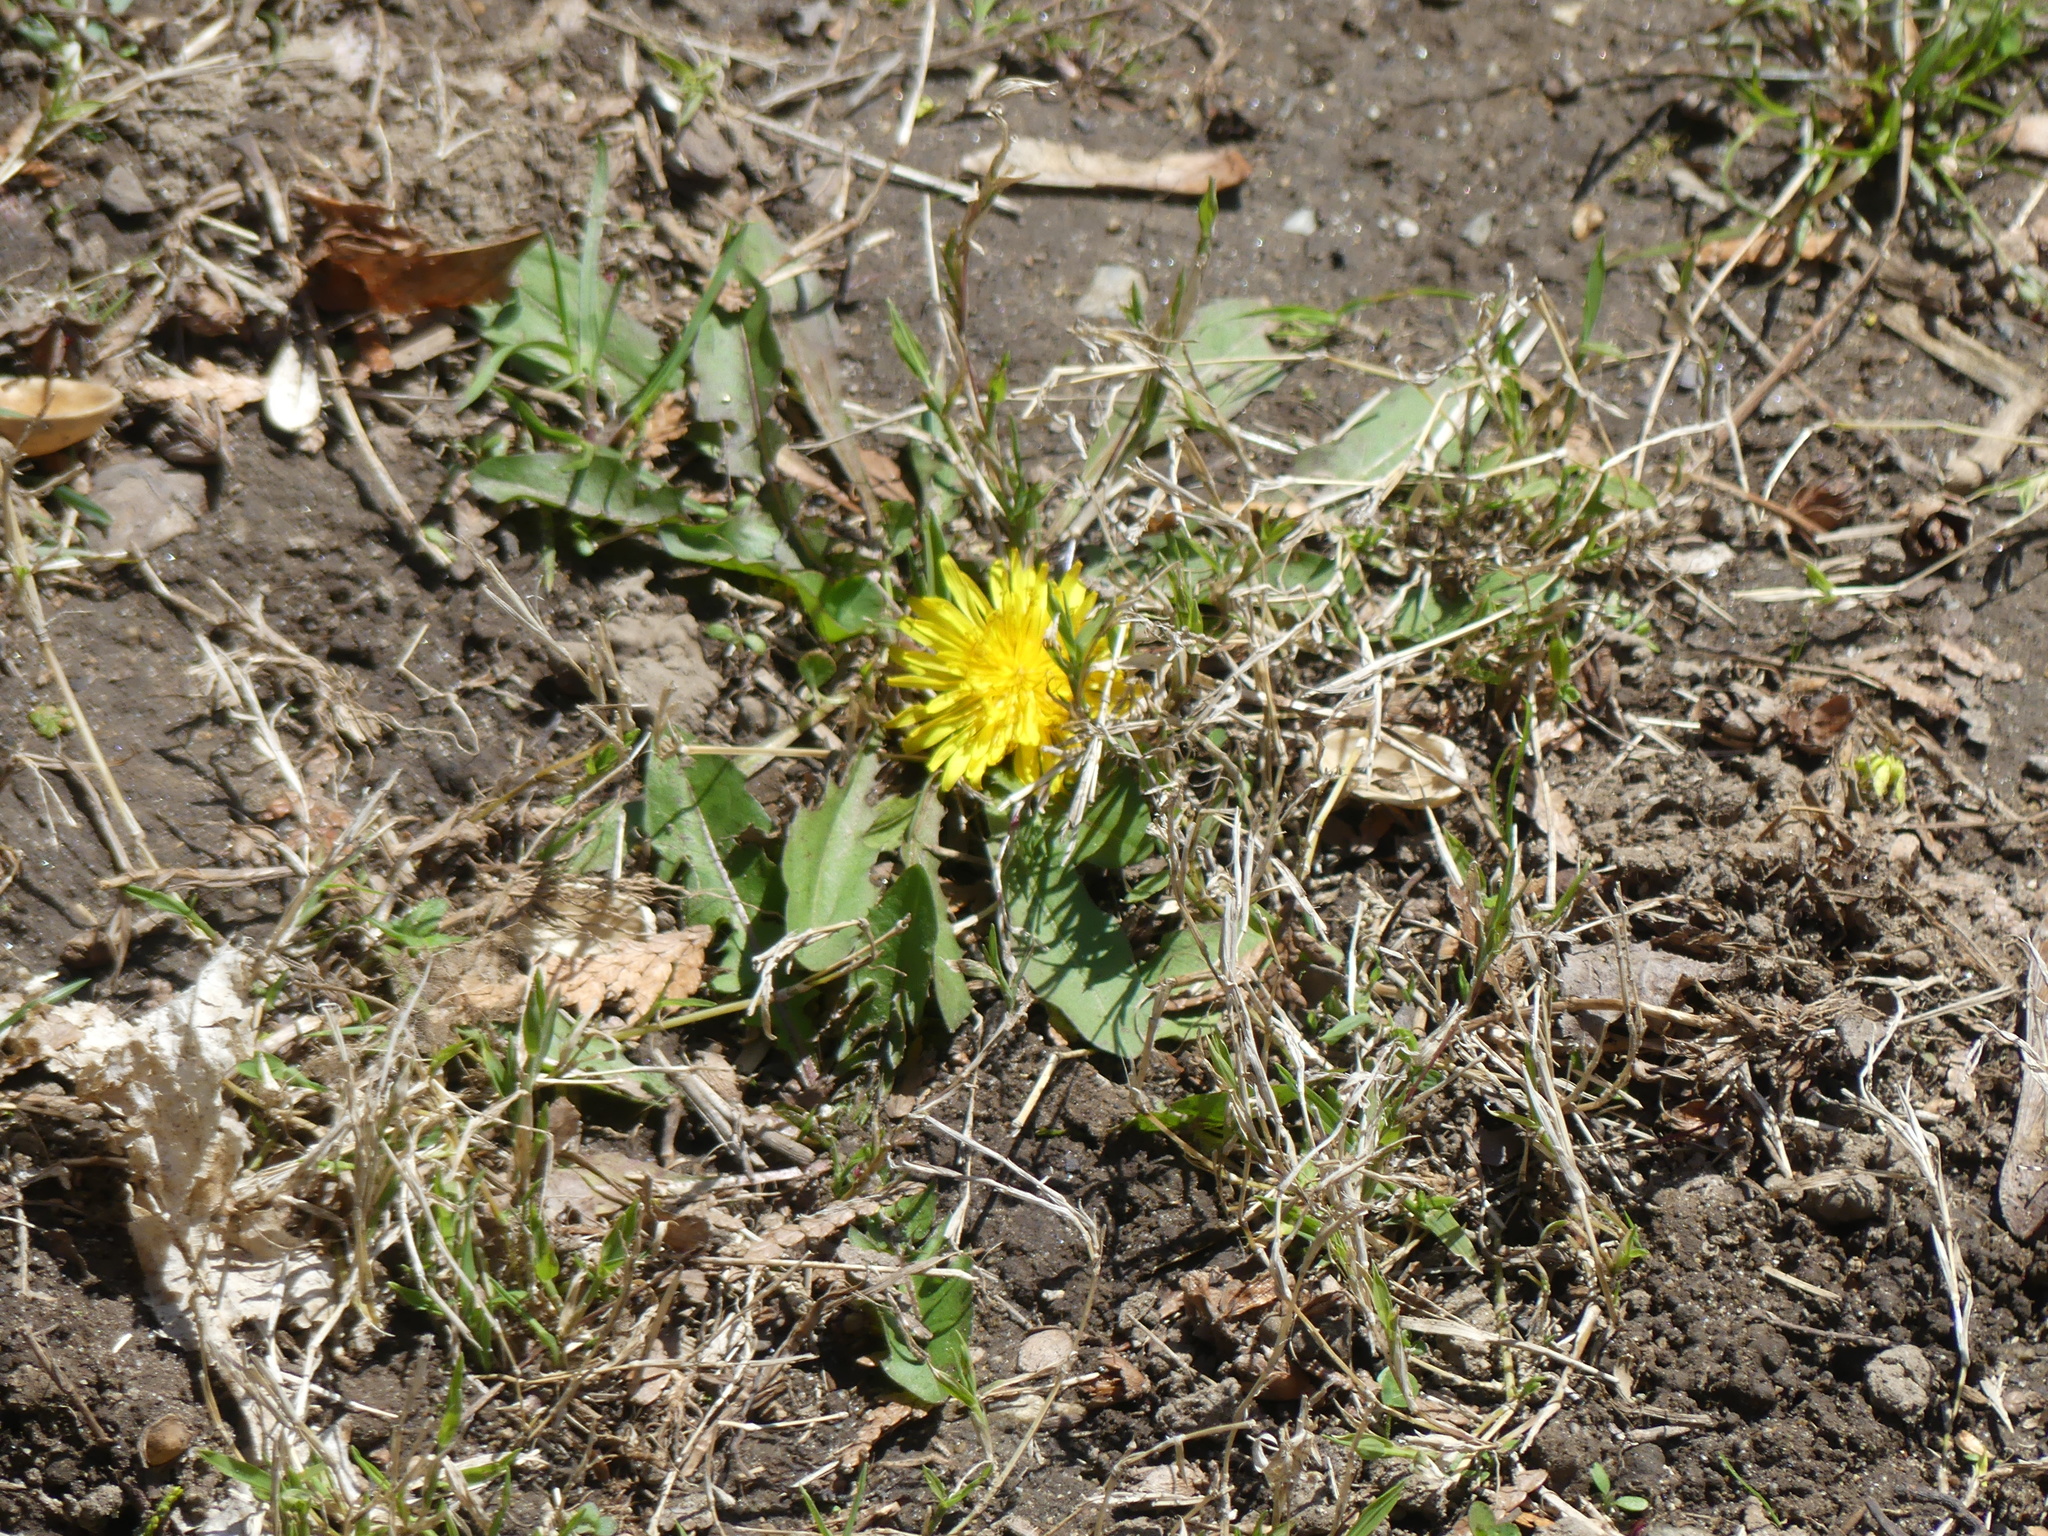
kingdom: Plantae
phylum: Tracheophyta
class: Magnoliopsida
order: Asterales
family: Asteraceae
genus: Taraxacum
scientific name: Taraxacum officinale
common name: Common dandelion
